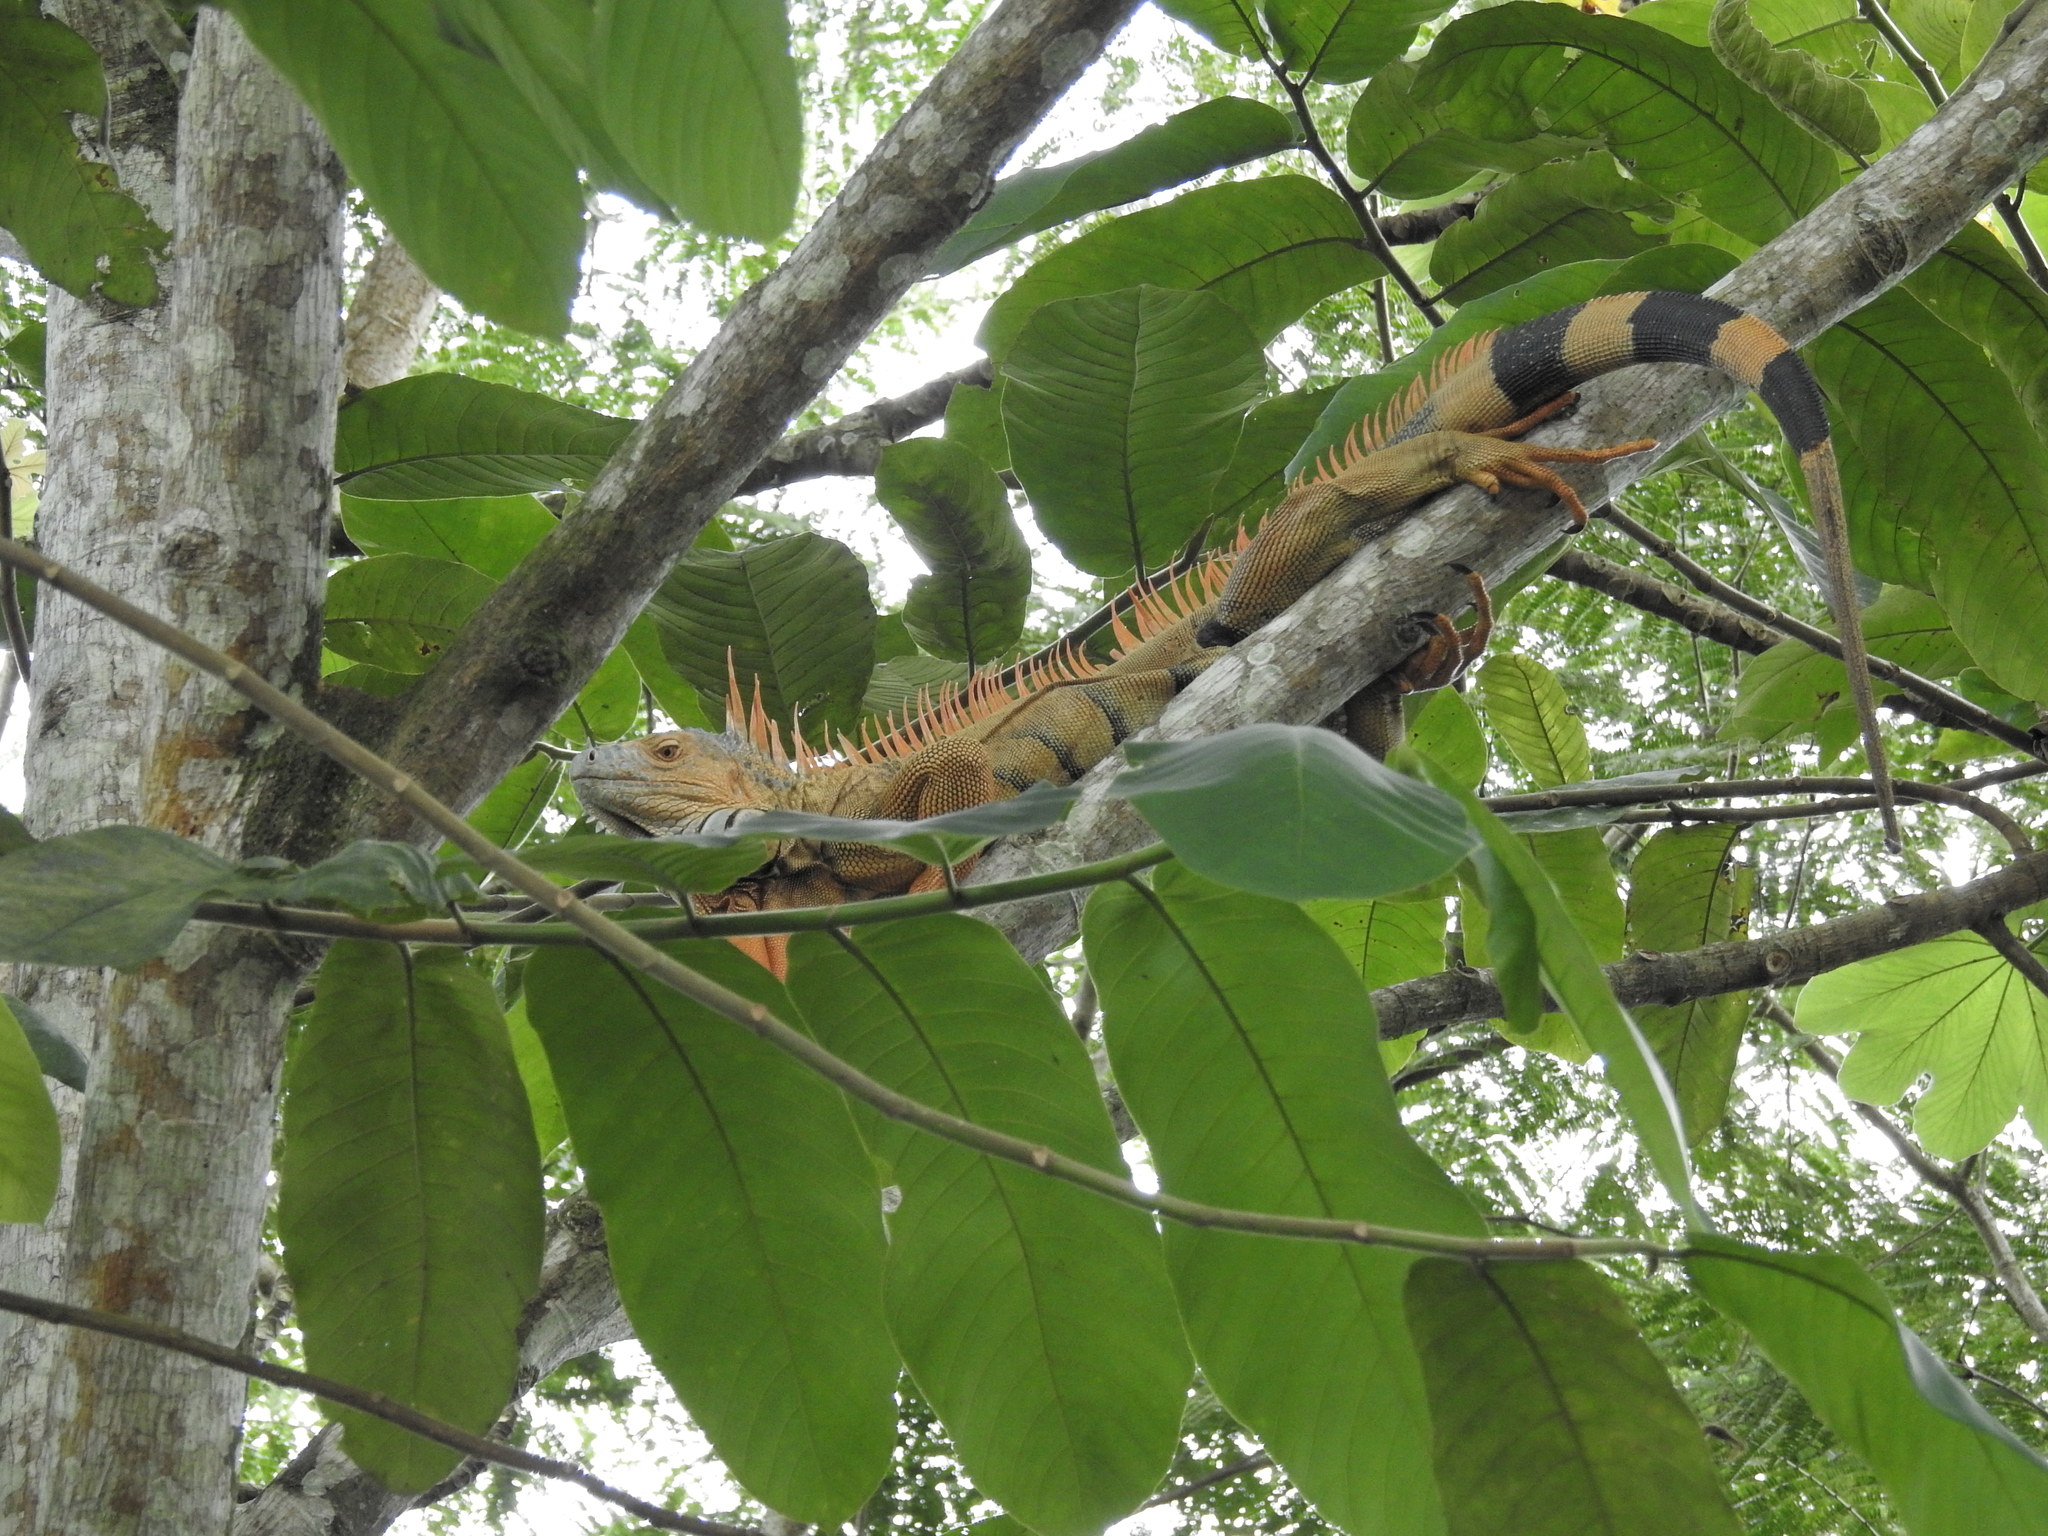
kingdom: Animalia
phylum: Chordata
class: Squamata
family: Iguanidae
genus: Iguana
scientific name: Iguana iguana
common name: Green iguana
